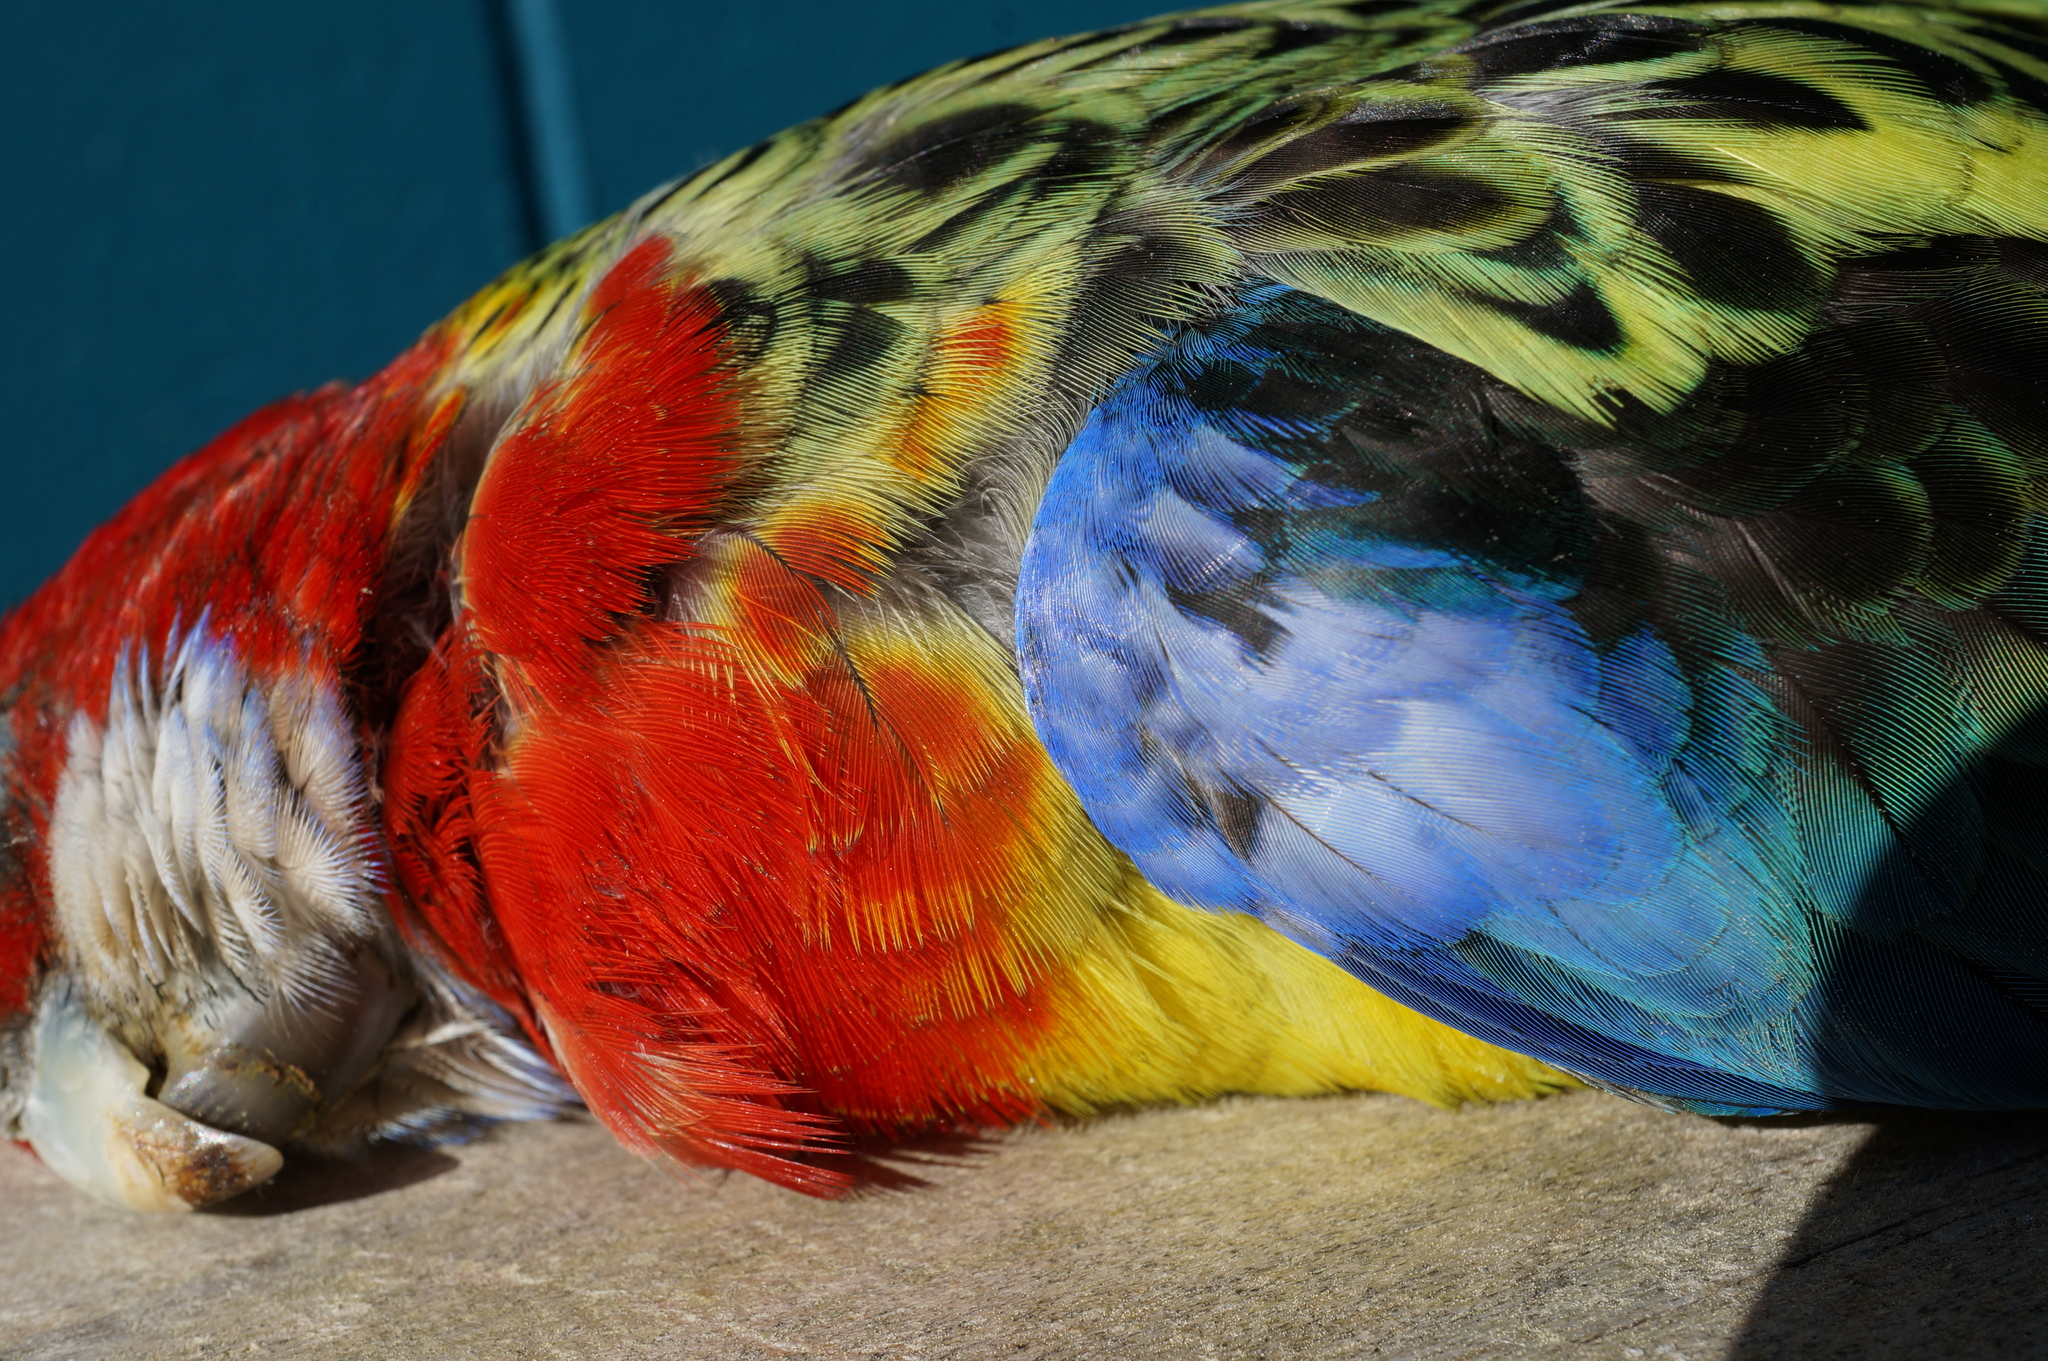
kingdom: Animalia
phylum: Chordata
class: Aves
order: Psittaciformes
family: Psittacidae
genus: Platycercus
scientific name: Platycercus eximius
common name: Eastern rosella
